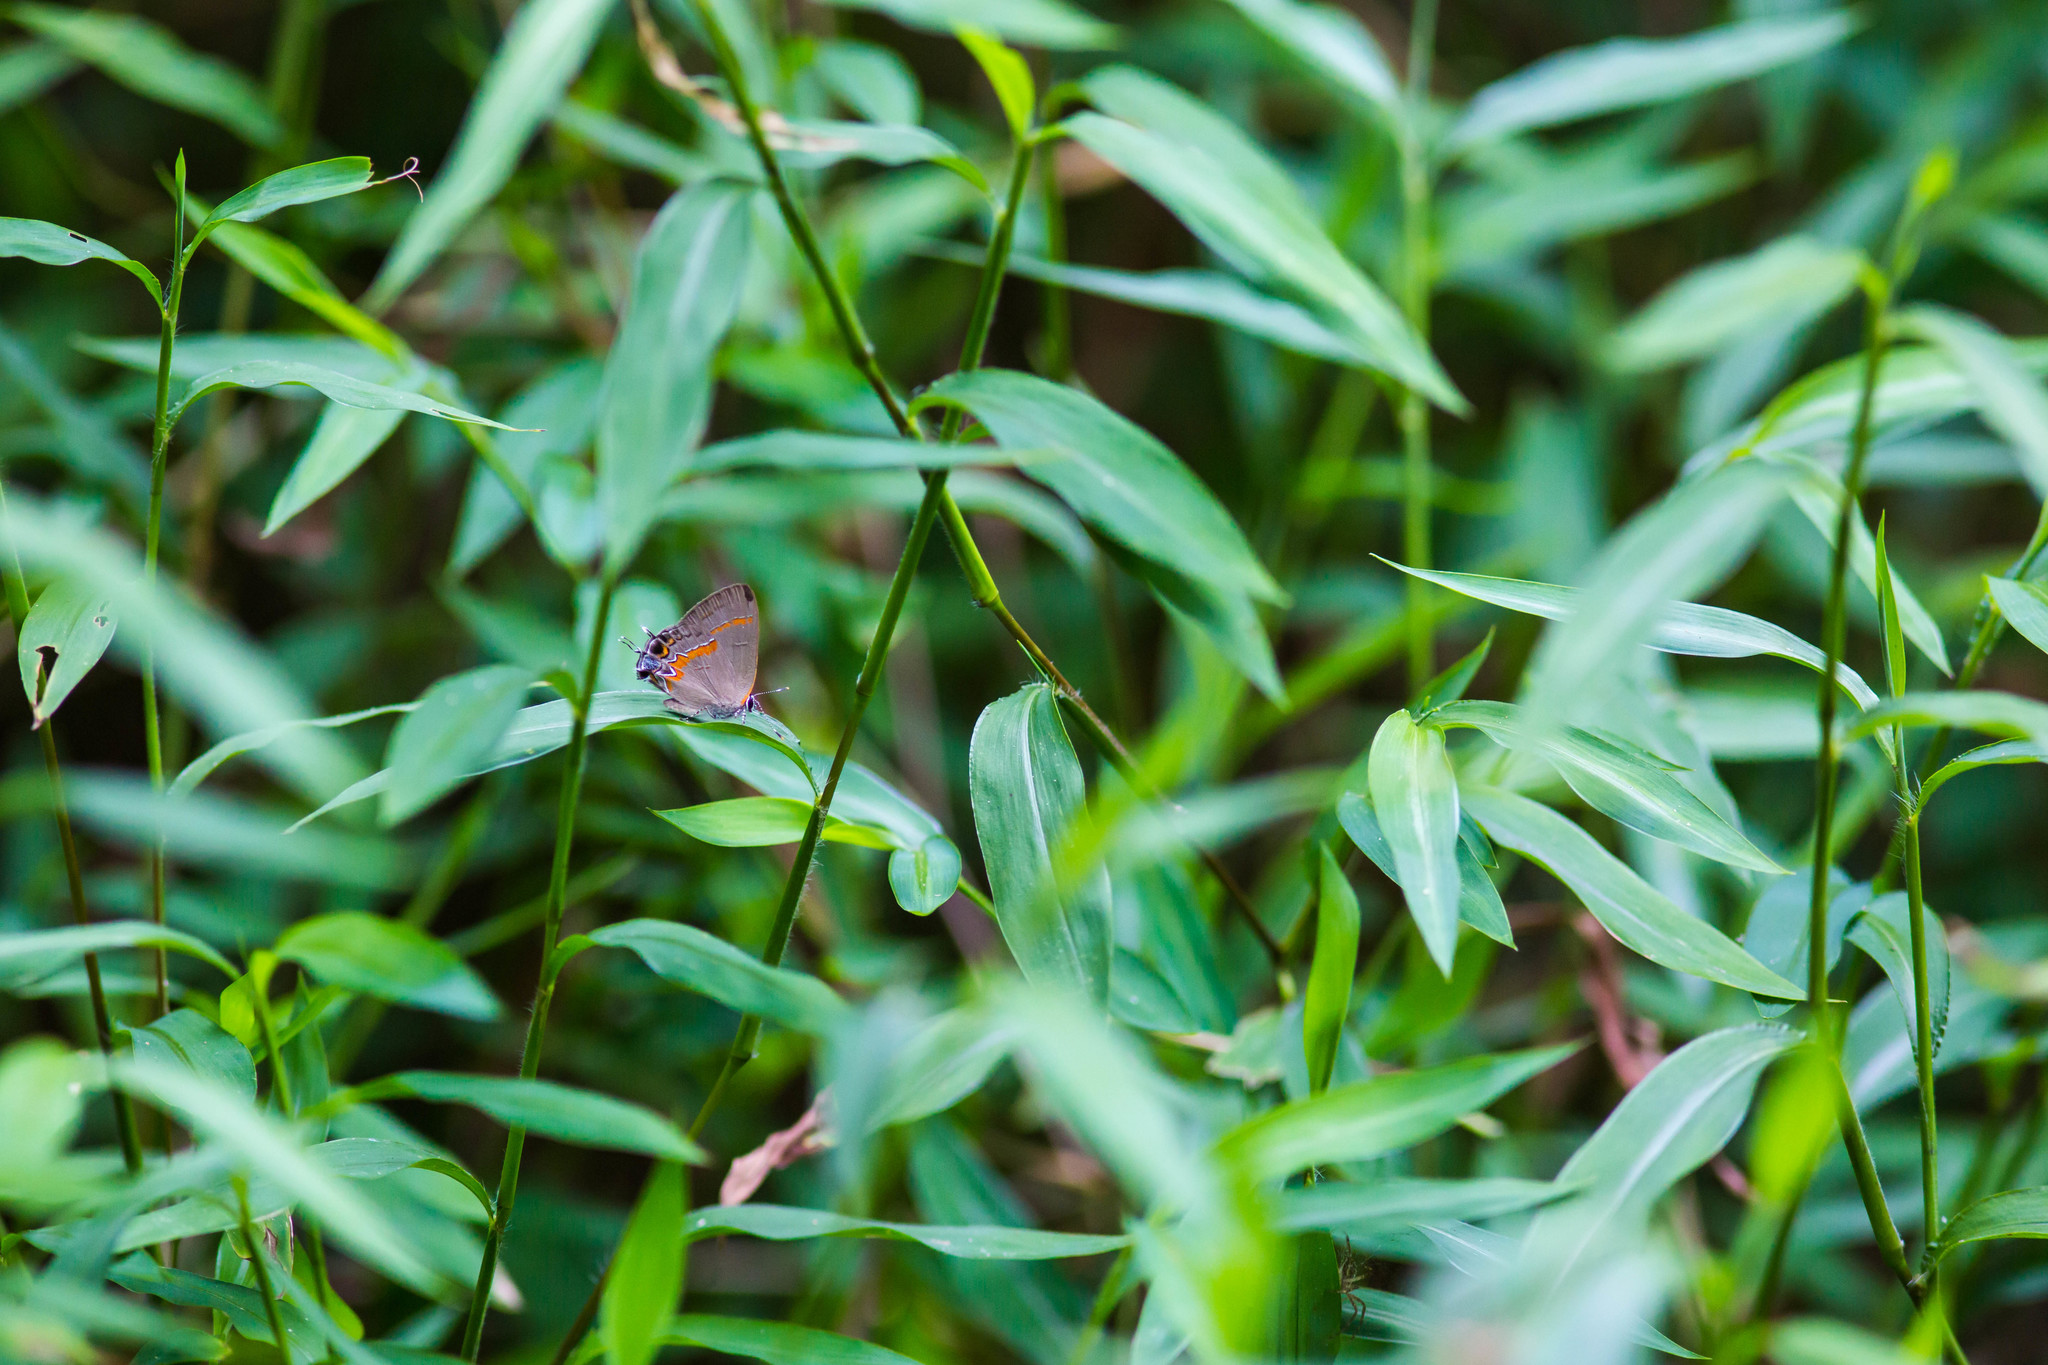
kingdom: Animalia
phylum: Arthropoda
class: Insecta
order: Lepidoptera
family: Lycaenidae
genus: Calycopis
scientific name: Calycopis cecrops
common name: Red-banded hairstreak
